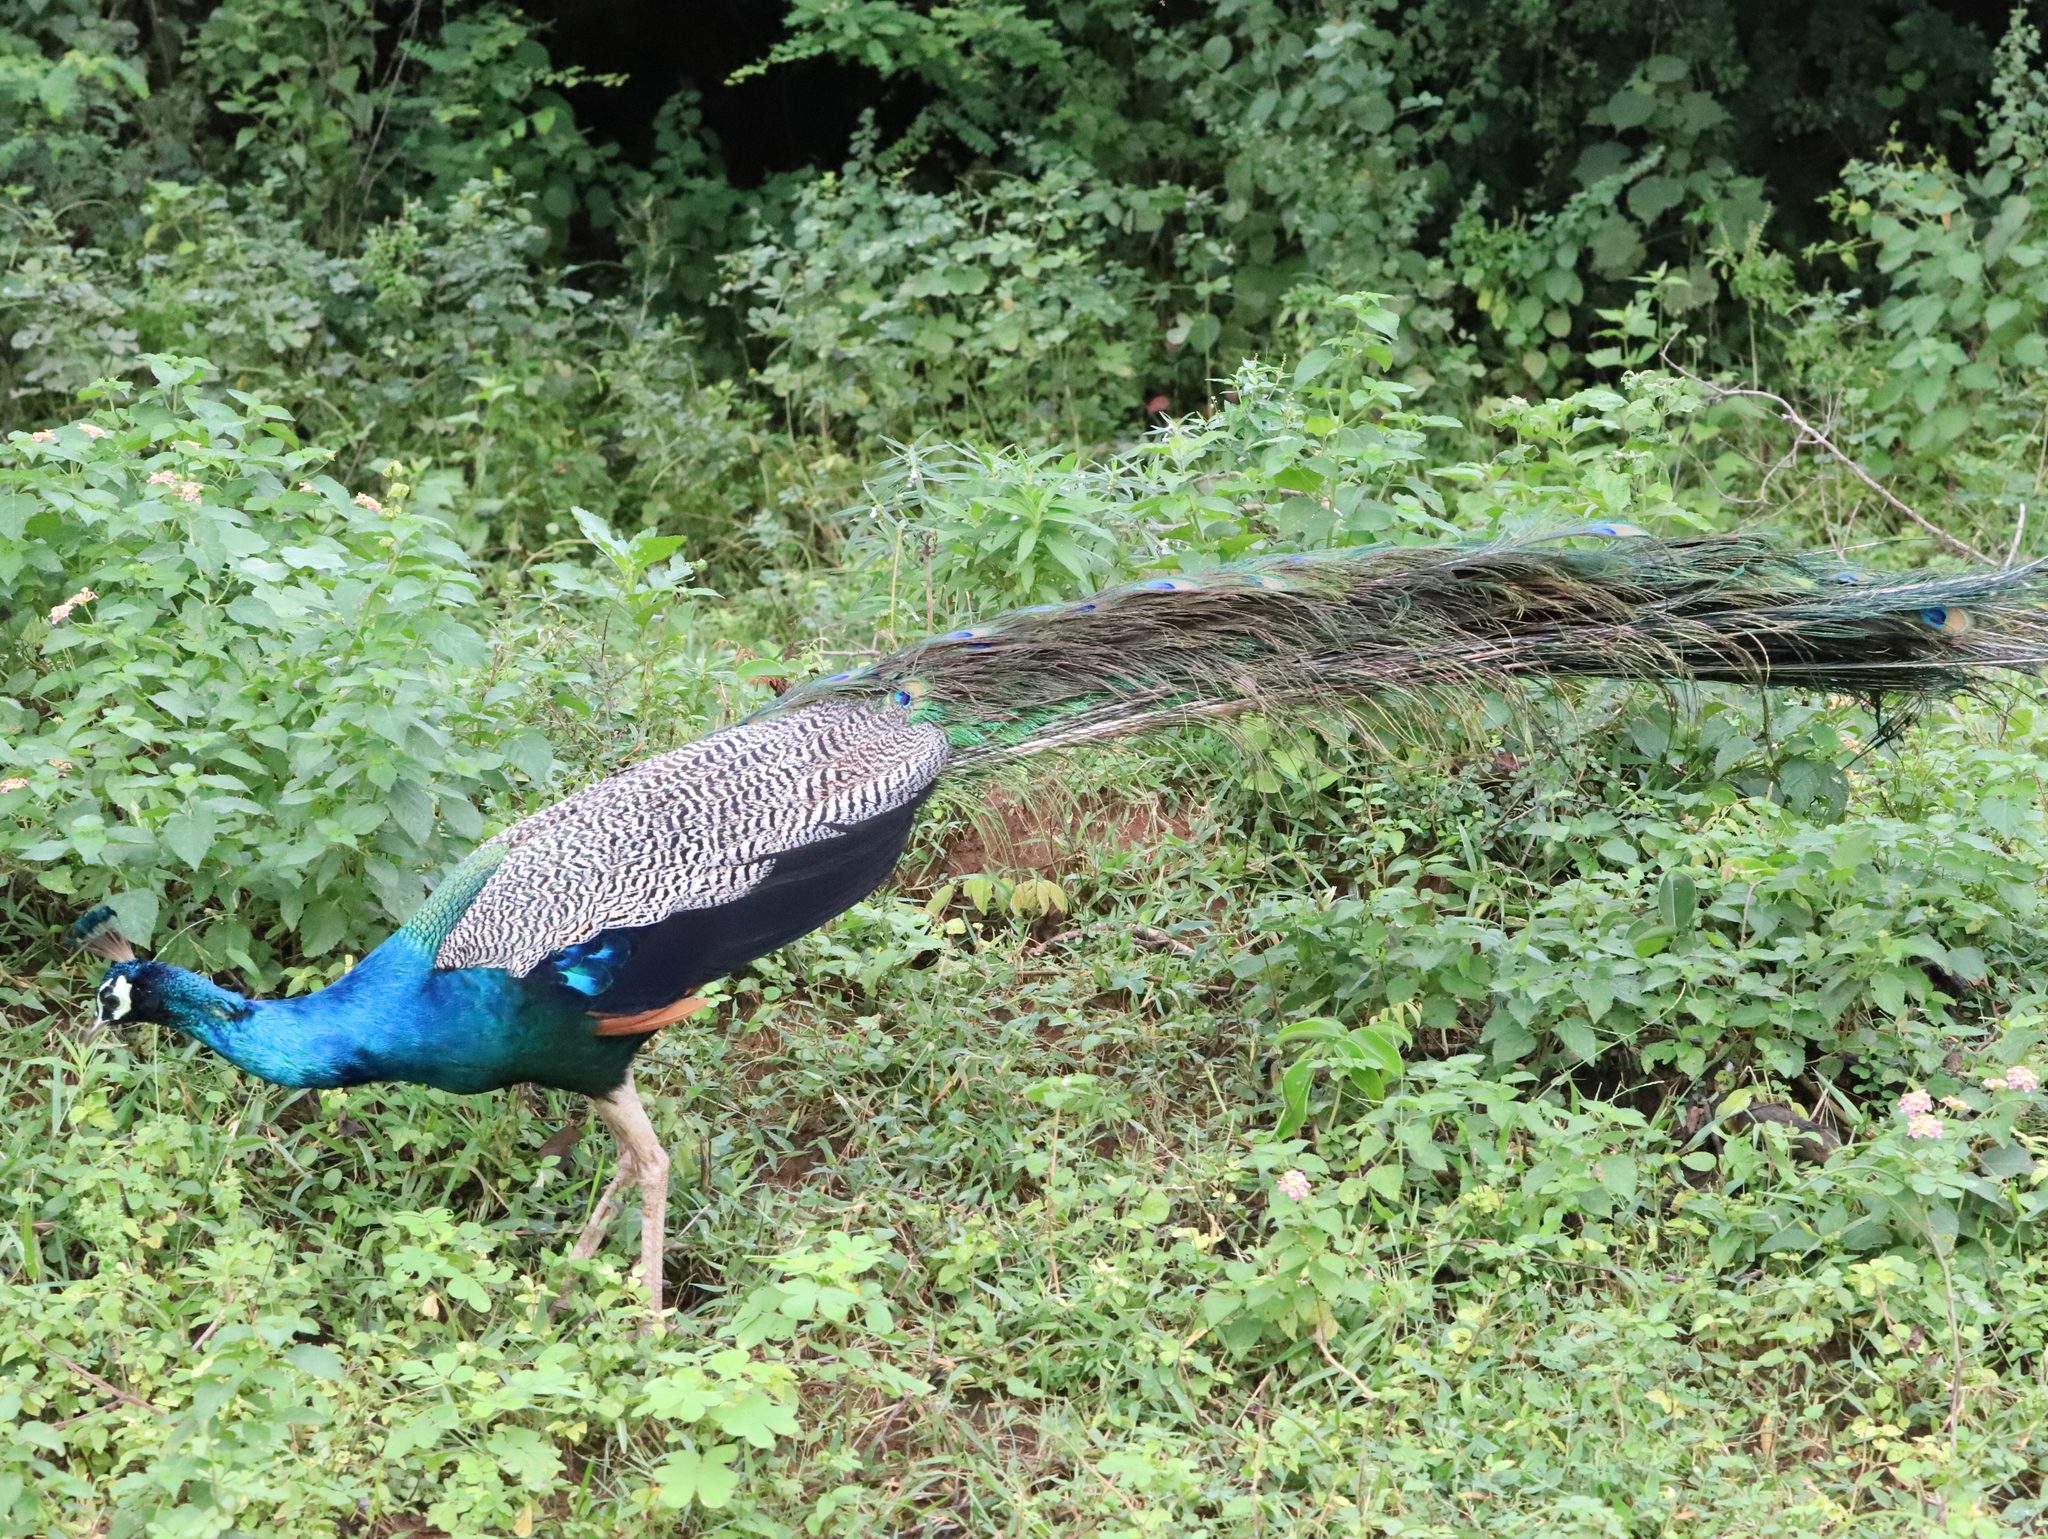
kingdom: Animalia
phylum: Chordata
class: Aves
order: Galliformes
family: Phasianidae
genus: Pavo
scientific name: Pavo cristatus
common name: Indian peafowl
